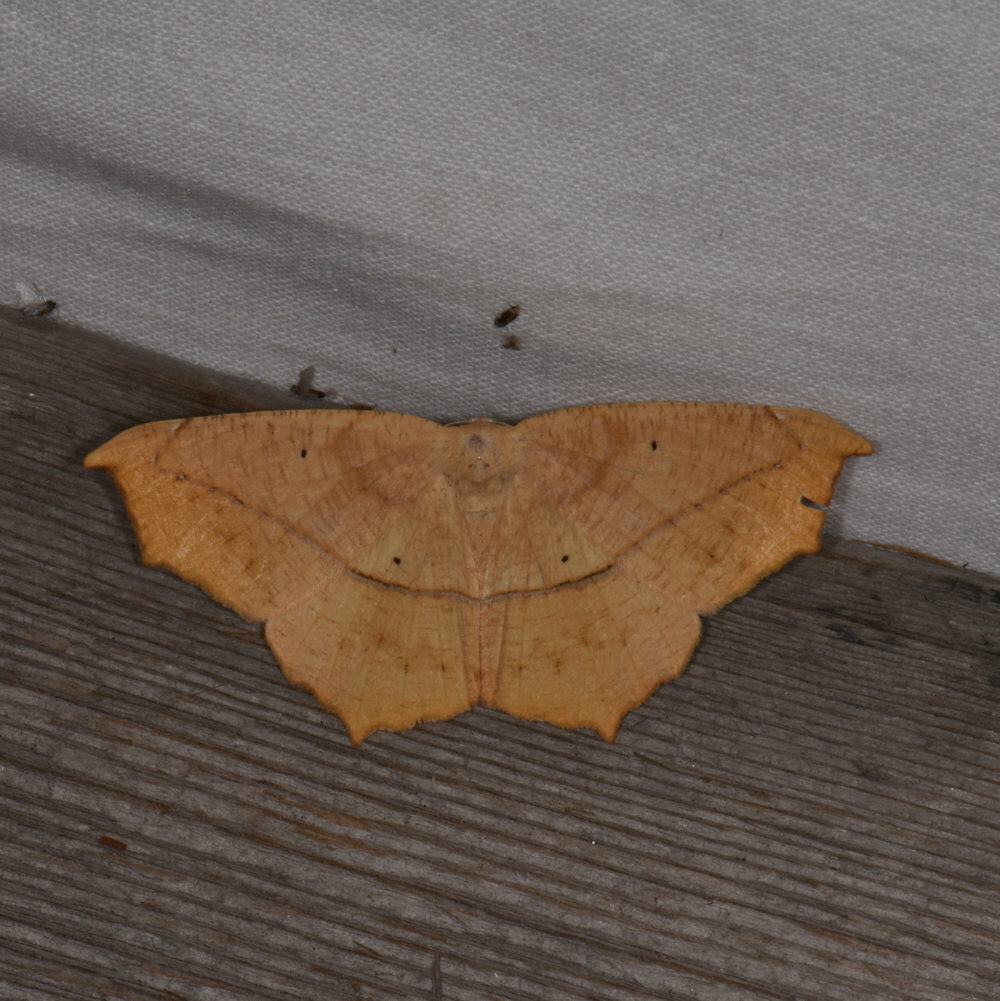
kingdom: Animalia
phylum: Arthropoda
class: Insecta
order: Lepidoptera
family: Geometridae
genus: Prochoerodes
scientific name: Prochoerodes lineola
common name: Large maple spanworm
